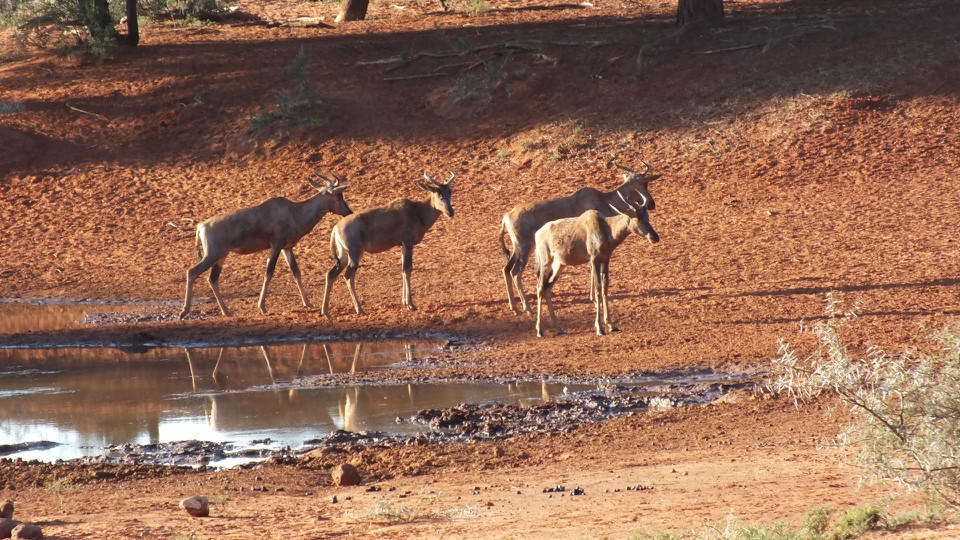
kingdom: Animalia
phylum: Chordata
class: Mammalia
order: Artiodactyla
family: Bovidae
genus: Damaliscus
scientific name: Damaliscus lunatus
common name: Common tsessebe
